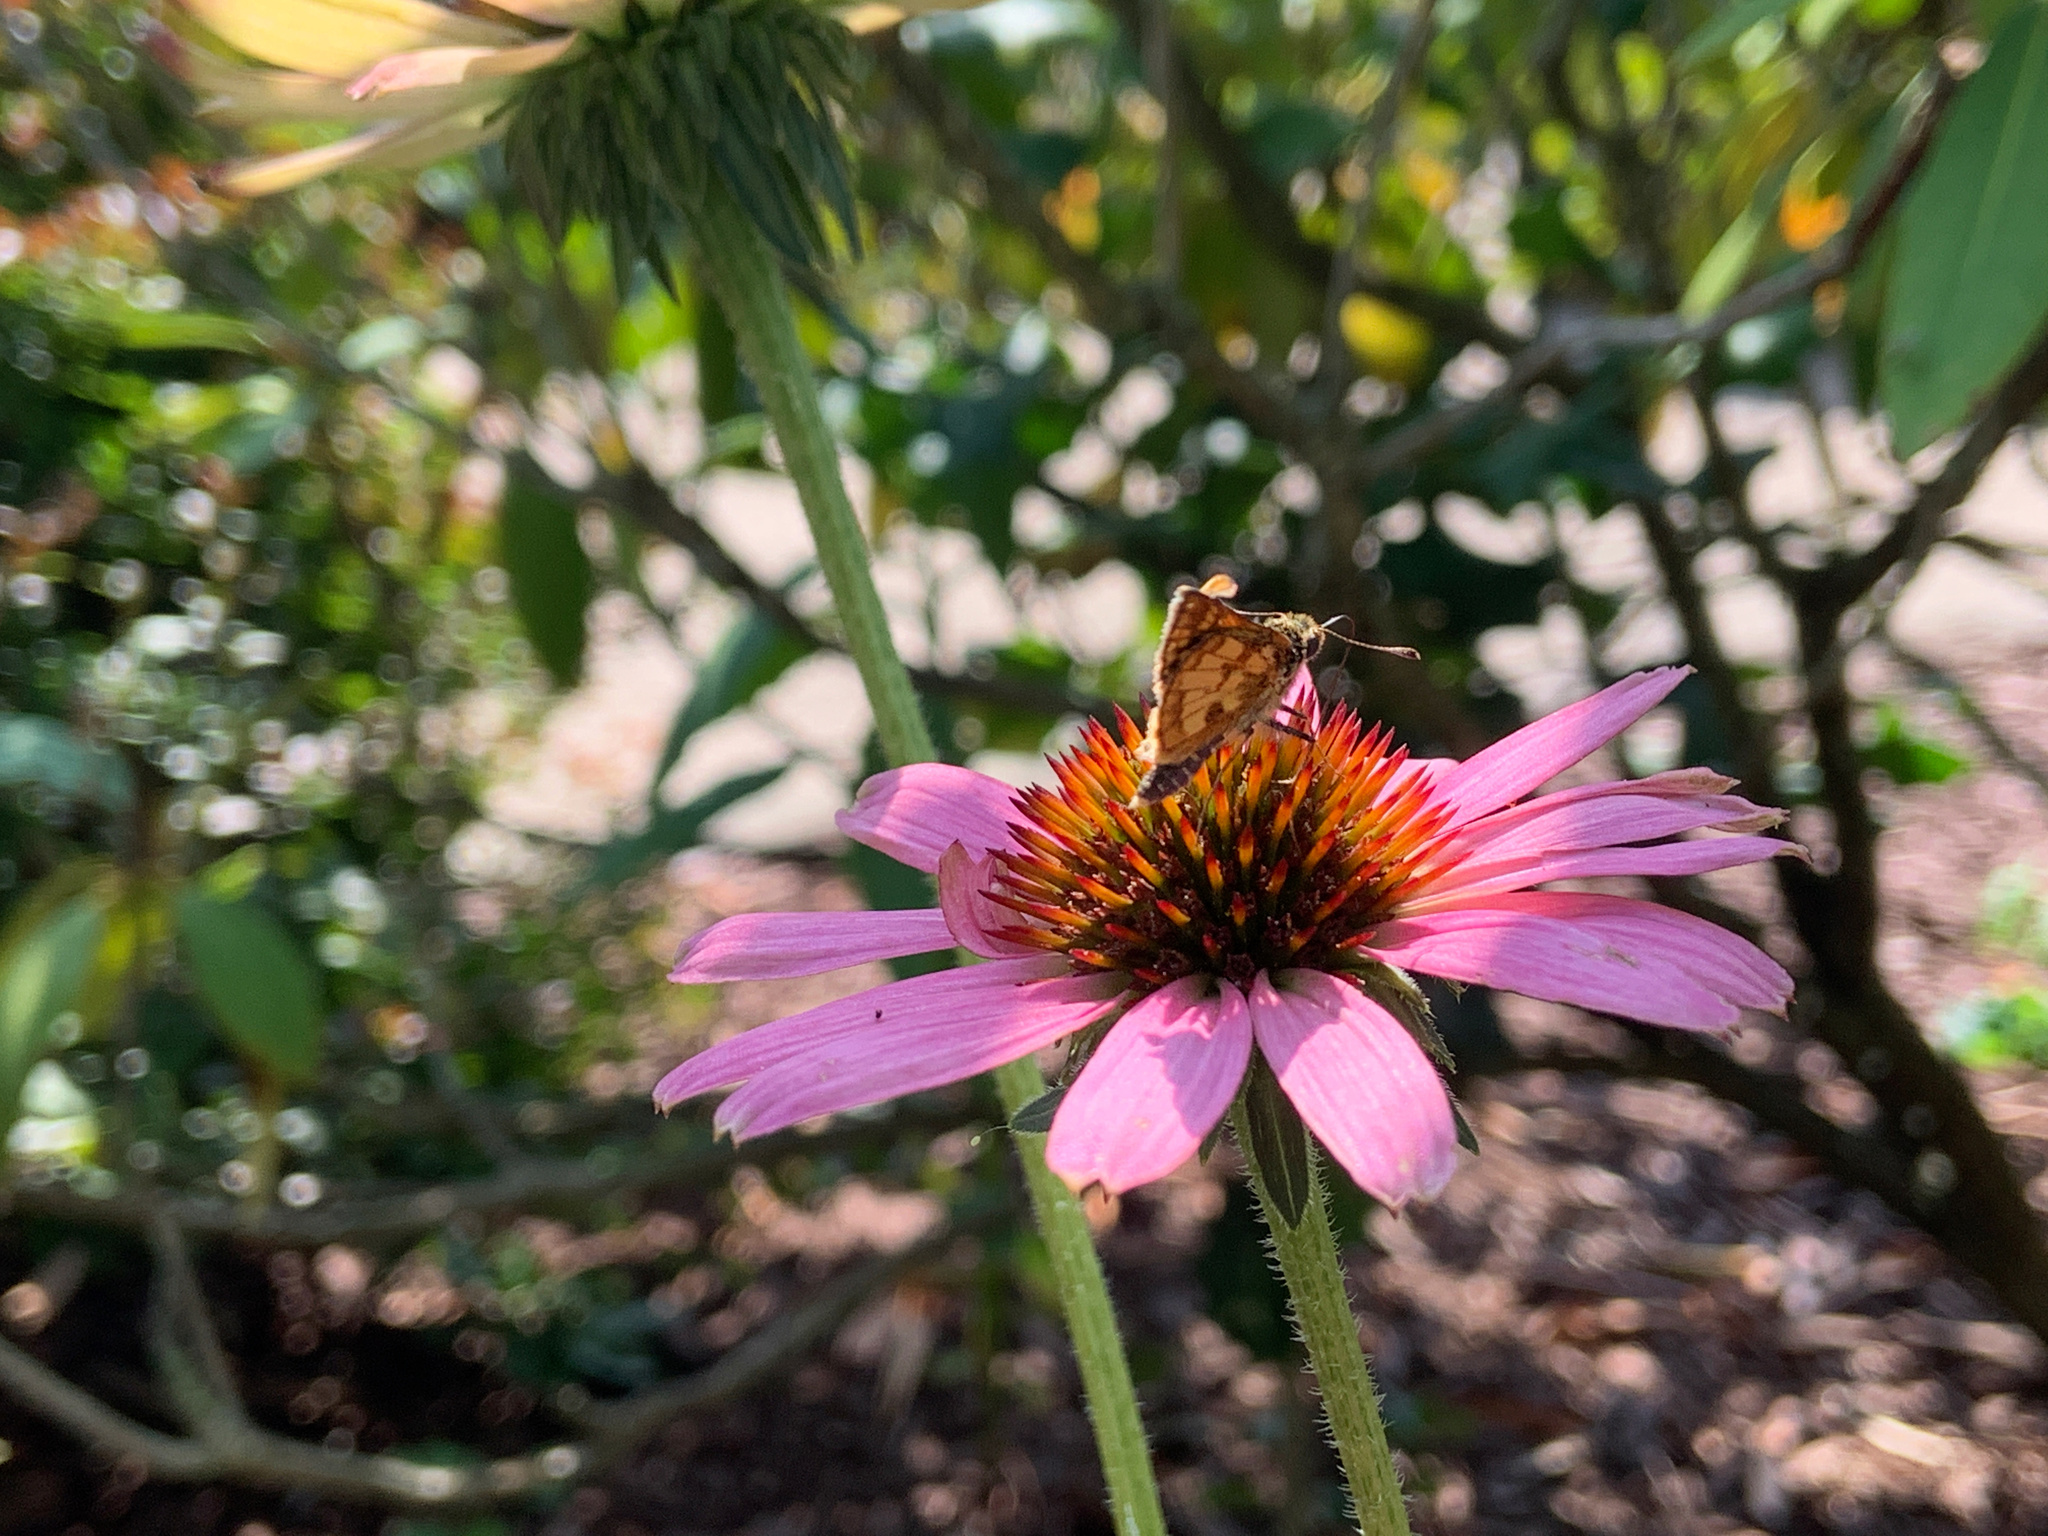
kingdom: Animalia
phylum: Arthropoda
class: Insecta
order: Lepidoptera
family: Hesperiidae
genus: Polites
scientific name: Polites coras
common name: Peck's skipper
